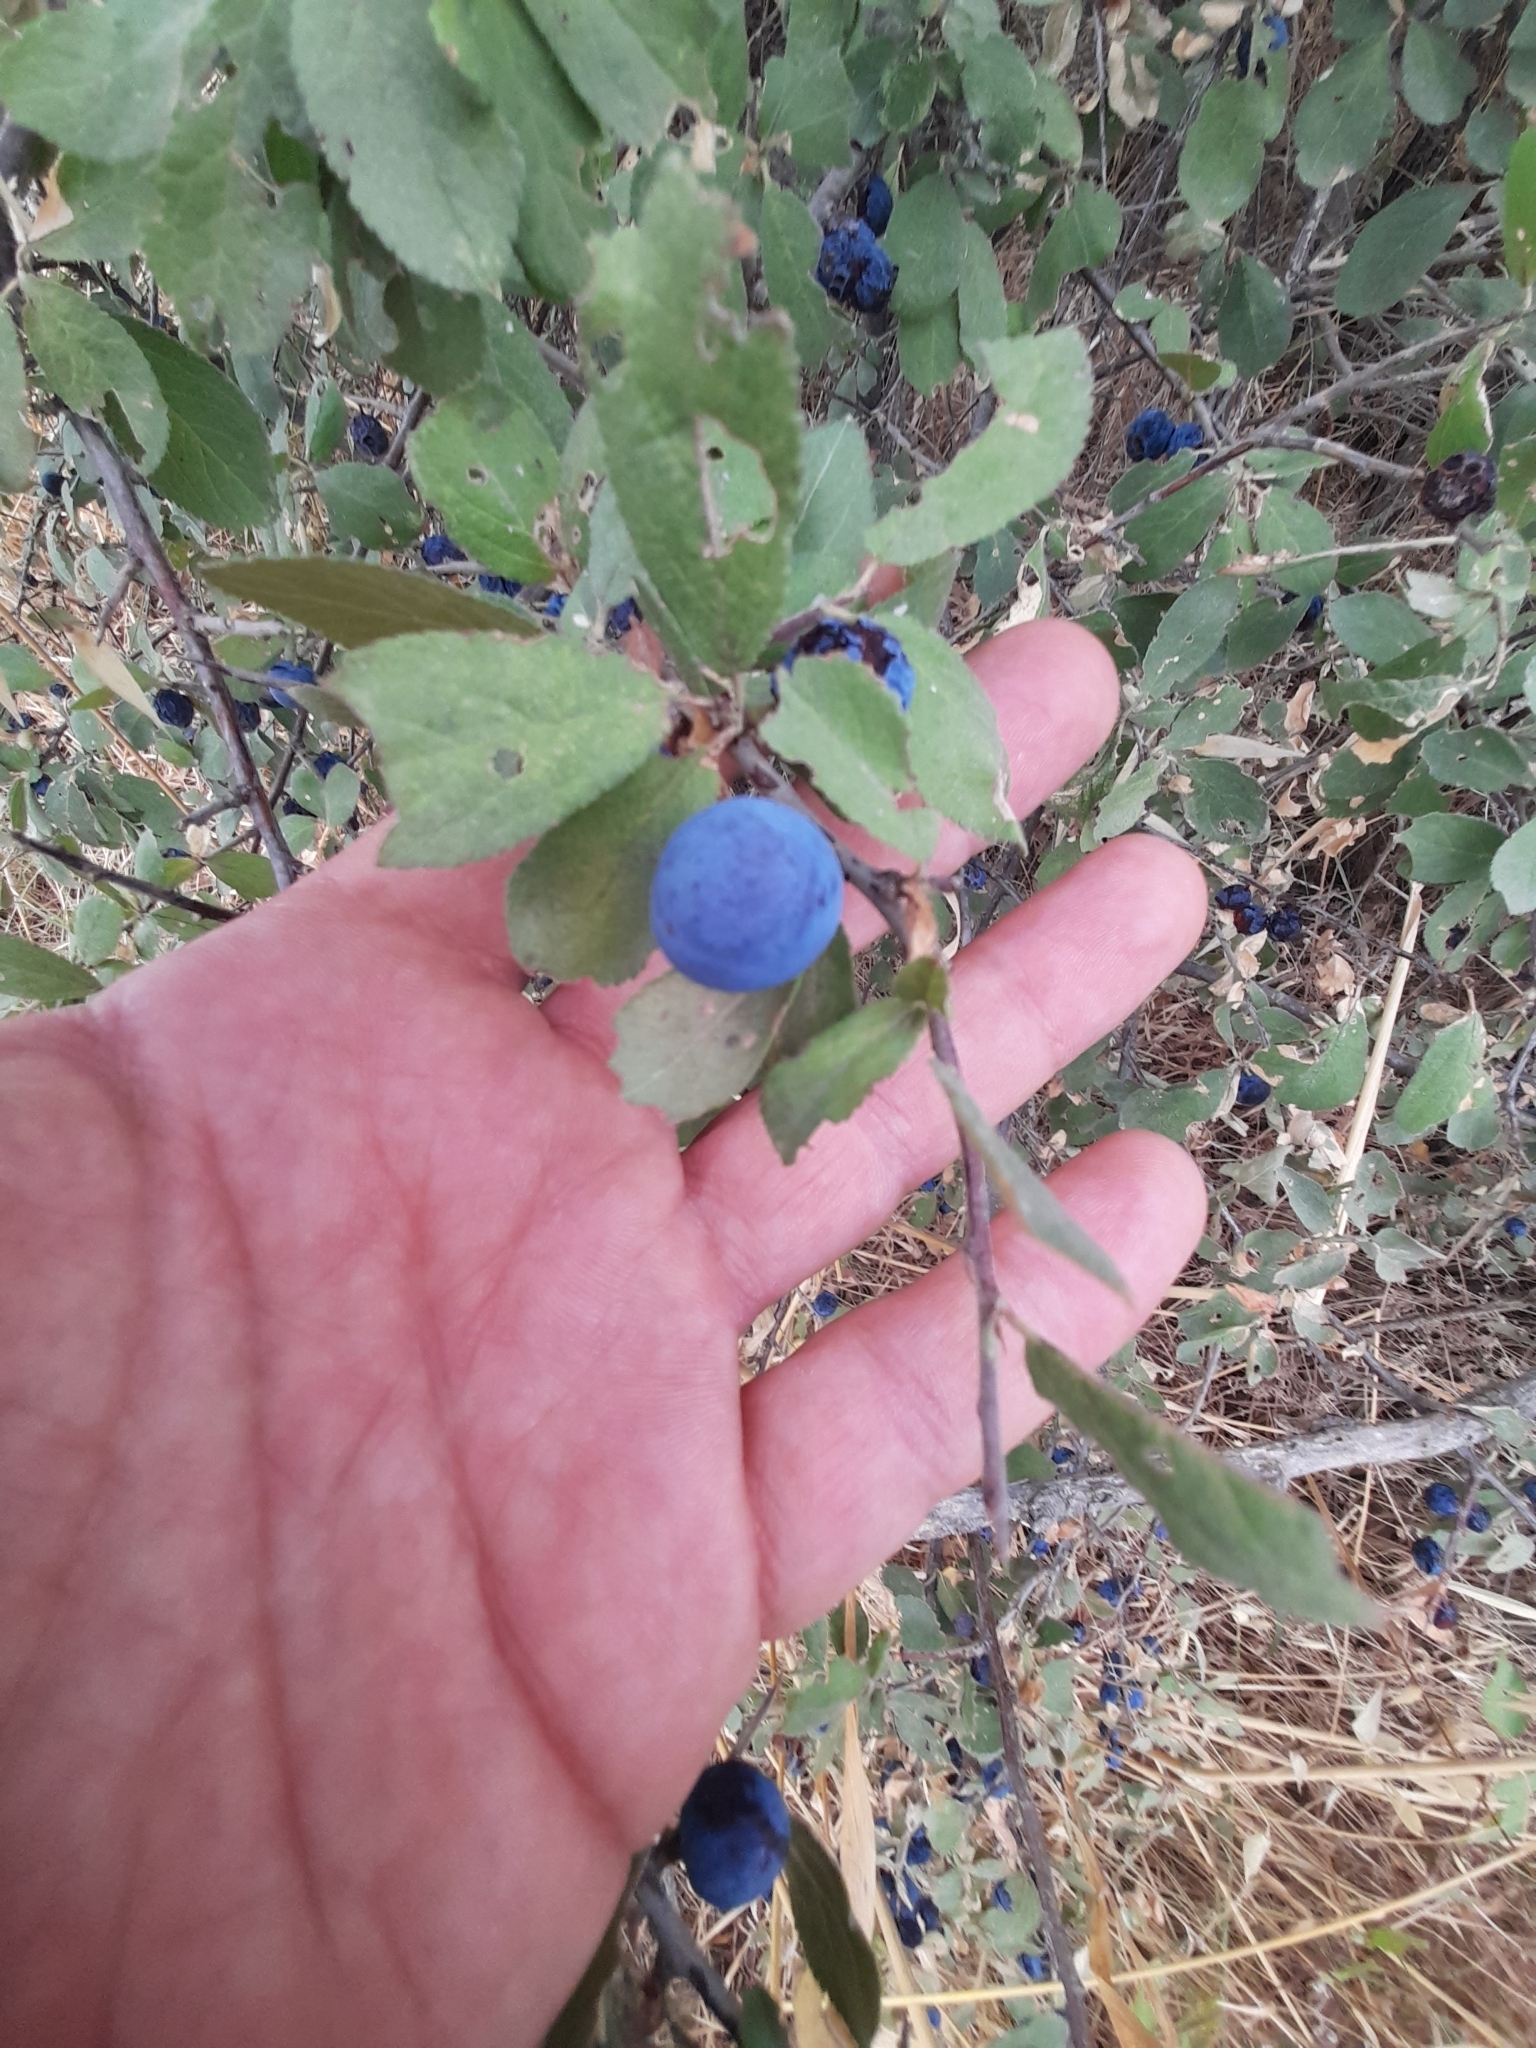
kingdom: Plantae
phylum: Tracheophyta
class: Magnoliopsida
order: Rosales
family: Rosaceae
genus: Prunus
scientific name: Prunus spinosa
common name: Blackthorn
